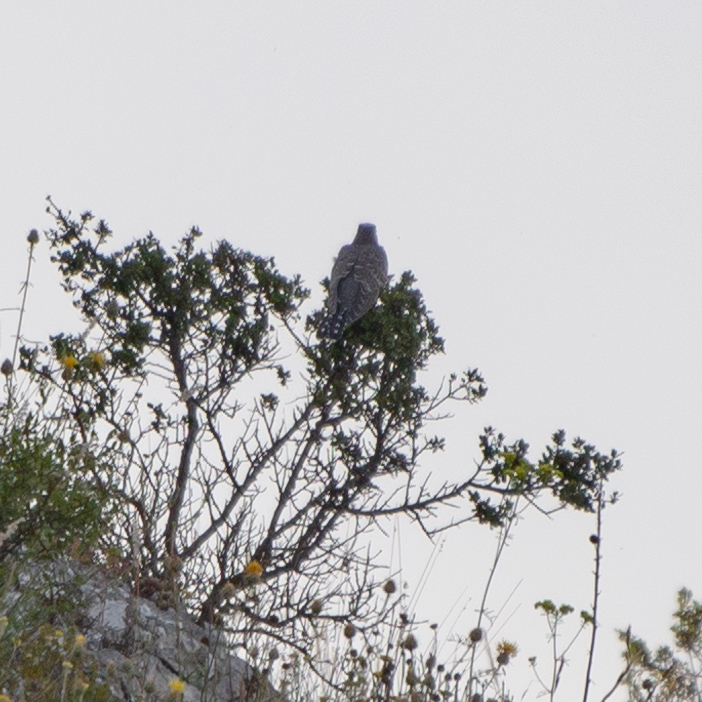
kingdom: Animalia
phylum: Chordata
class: Aves
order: Cuculiformes
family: Cuculidae
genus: Cuculus
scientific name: Cuculus canorus
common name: Common cuckoo
